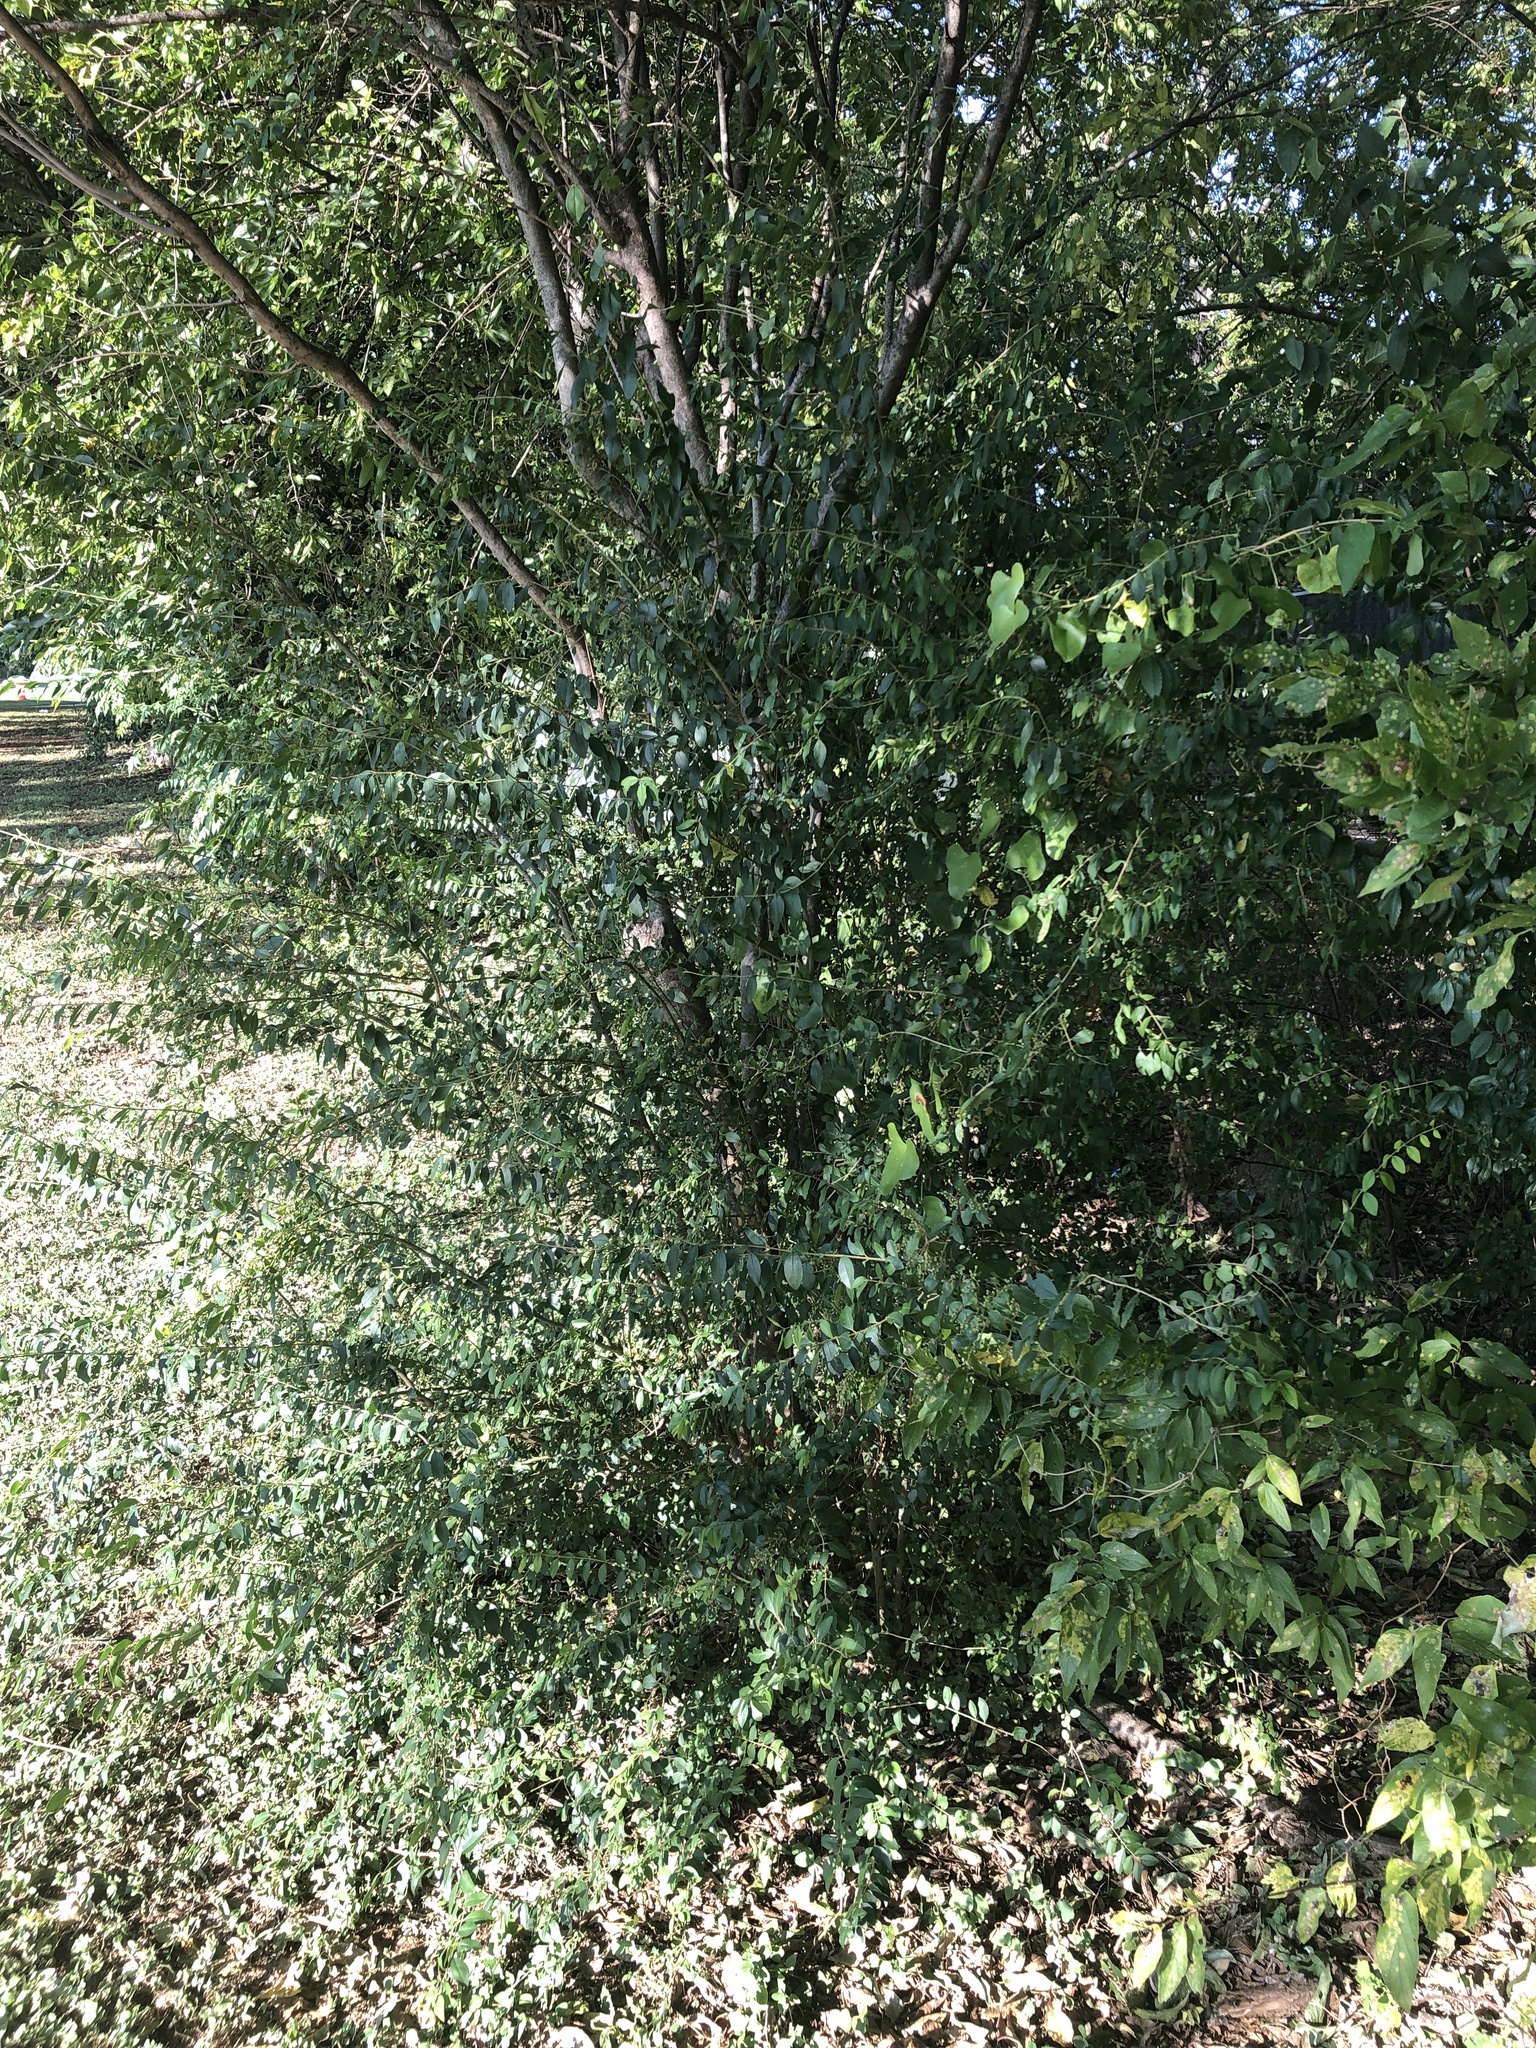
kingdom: Plantae
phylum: Tracheophyta
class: Magnoliopsida
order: Lamiales
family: Oleaceae
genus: Ligustrum
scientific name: Ligustrum sinense
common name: Chinese privet
